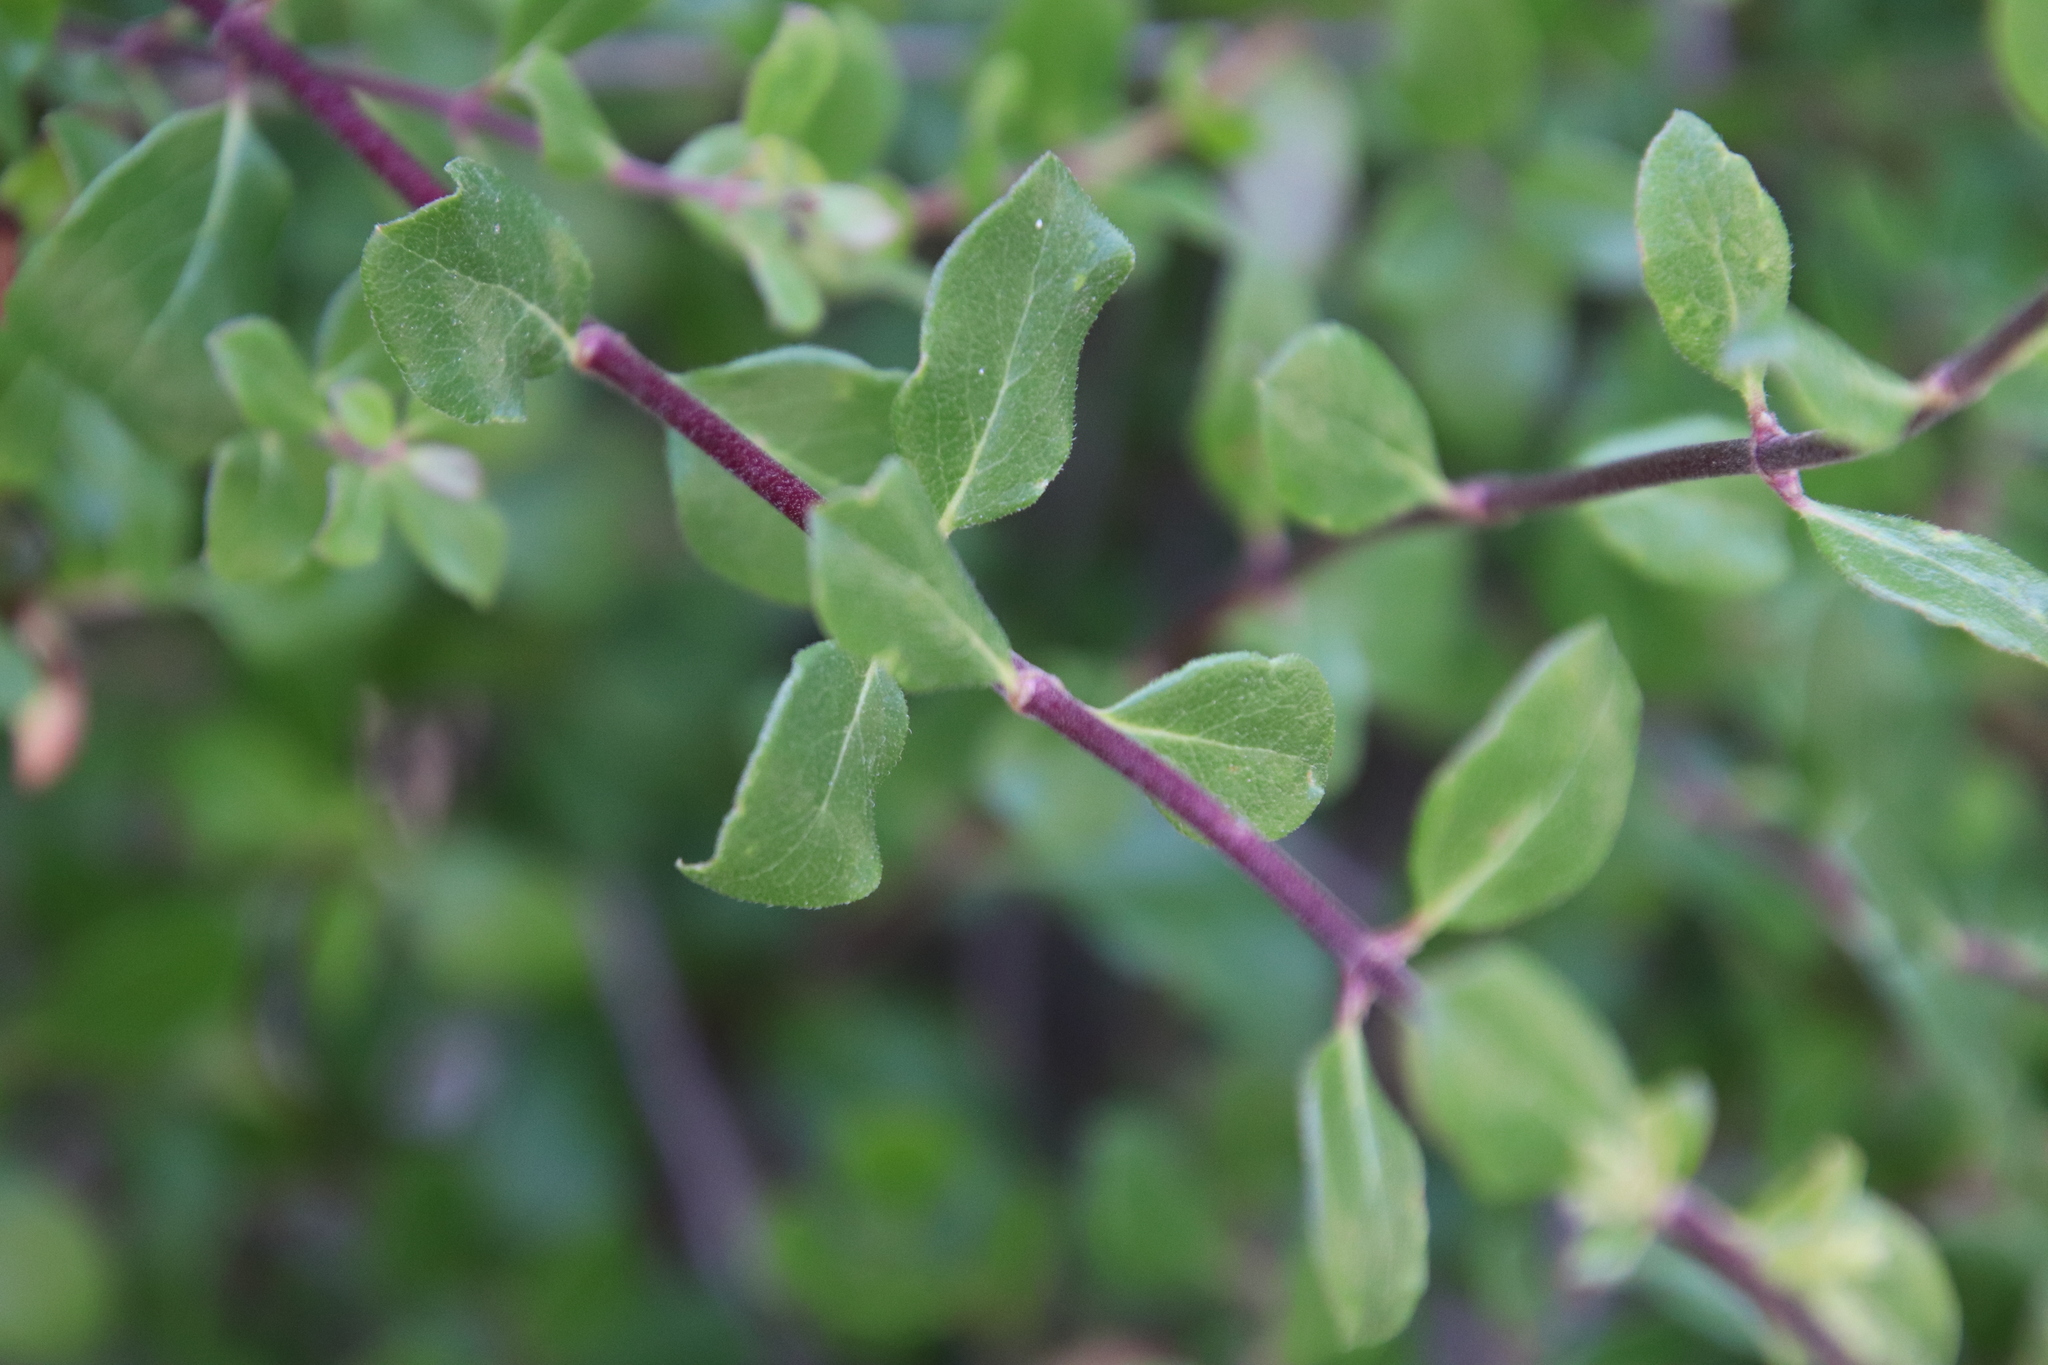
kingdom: Plantae
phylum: Tracheophyta
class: Magnoliopsida
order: Dipsacales
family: Caprifoliaceae
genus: Lonicera
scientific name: Lonicera subspicata
